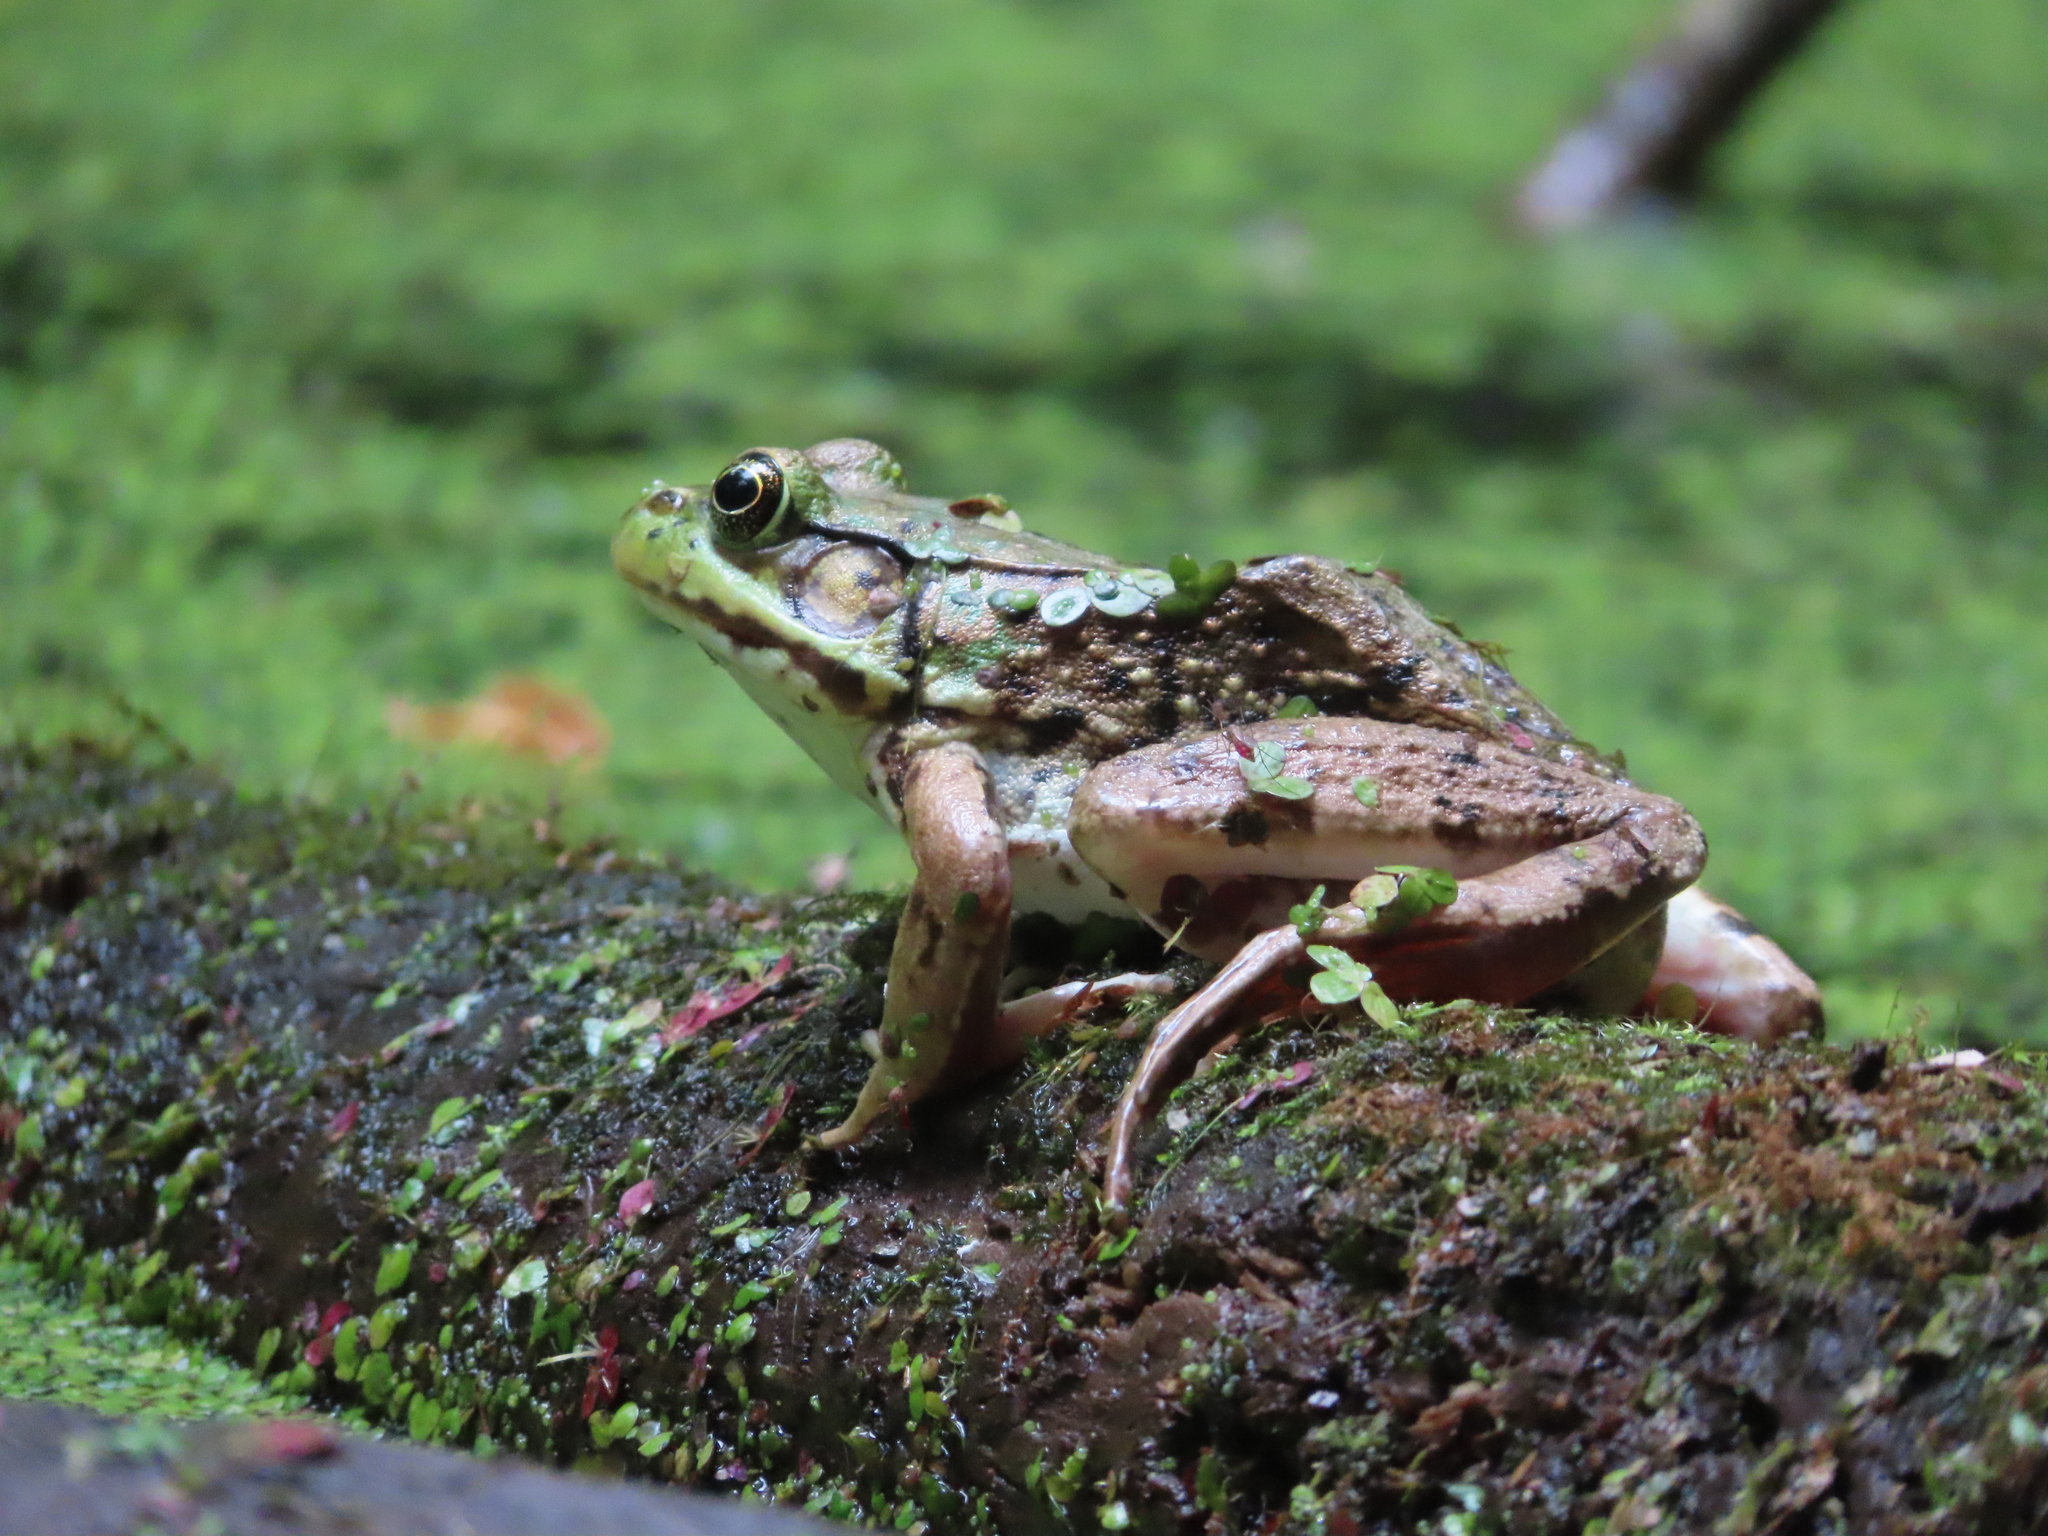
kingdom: Animalia
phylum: Chordata
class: Amphibia
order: Anura
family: Ranidae
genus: Lithobates
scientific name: Lithobates clamitans
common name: Green frog
